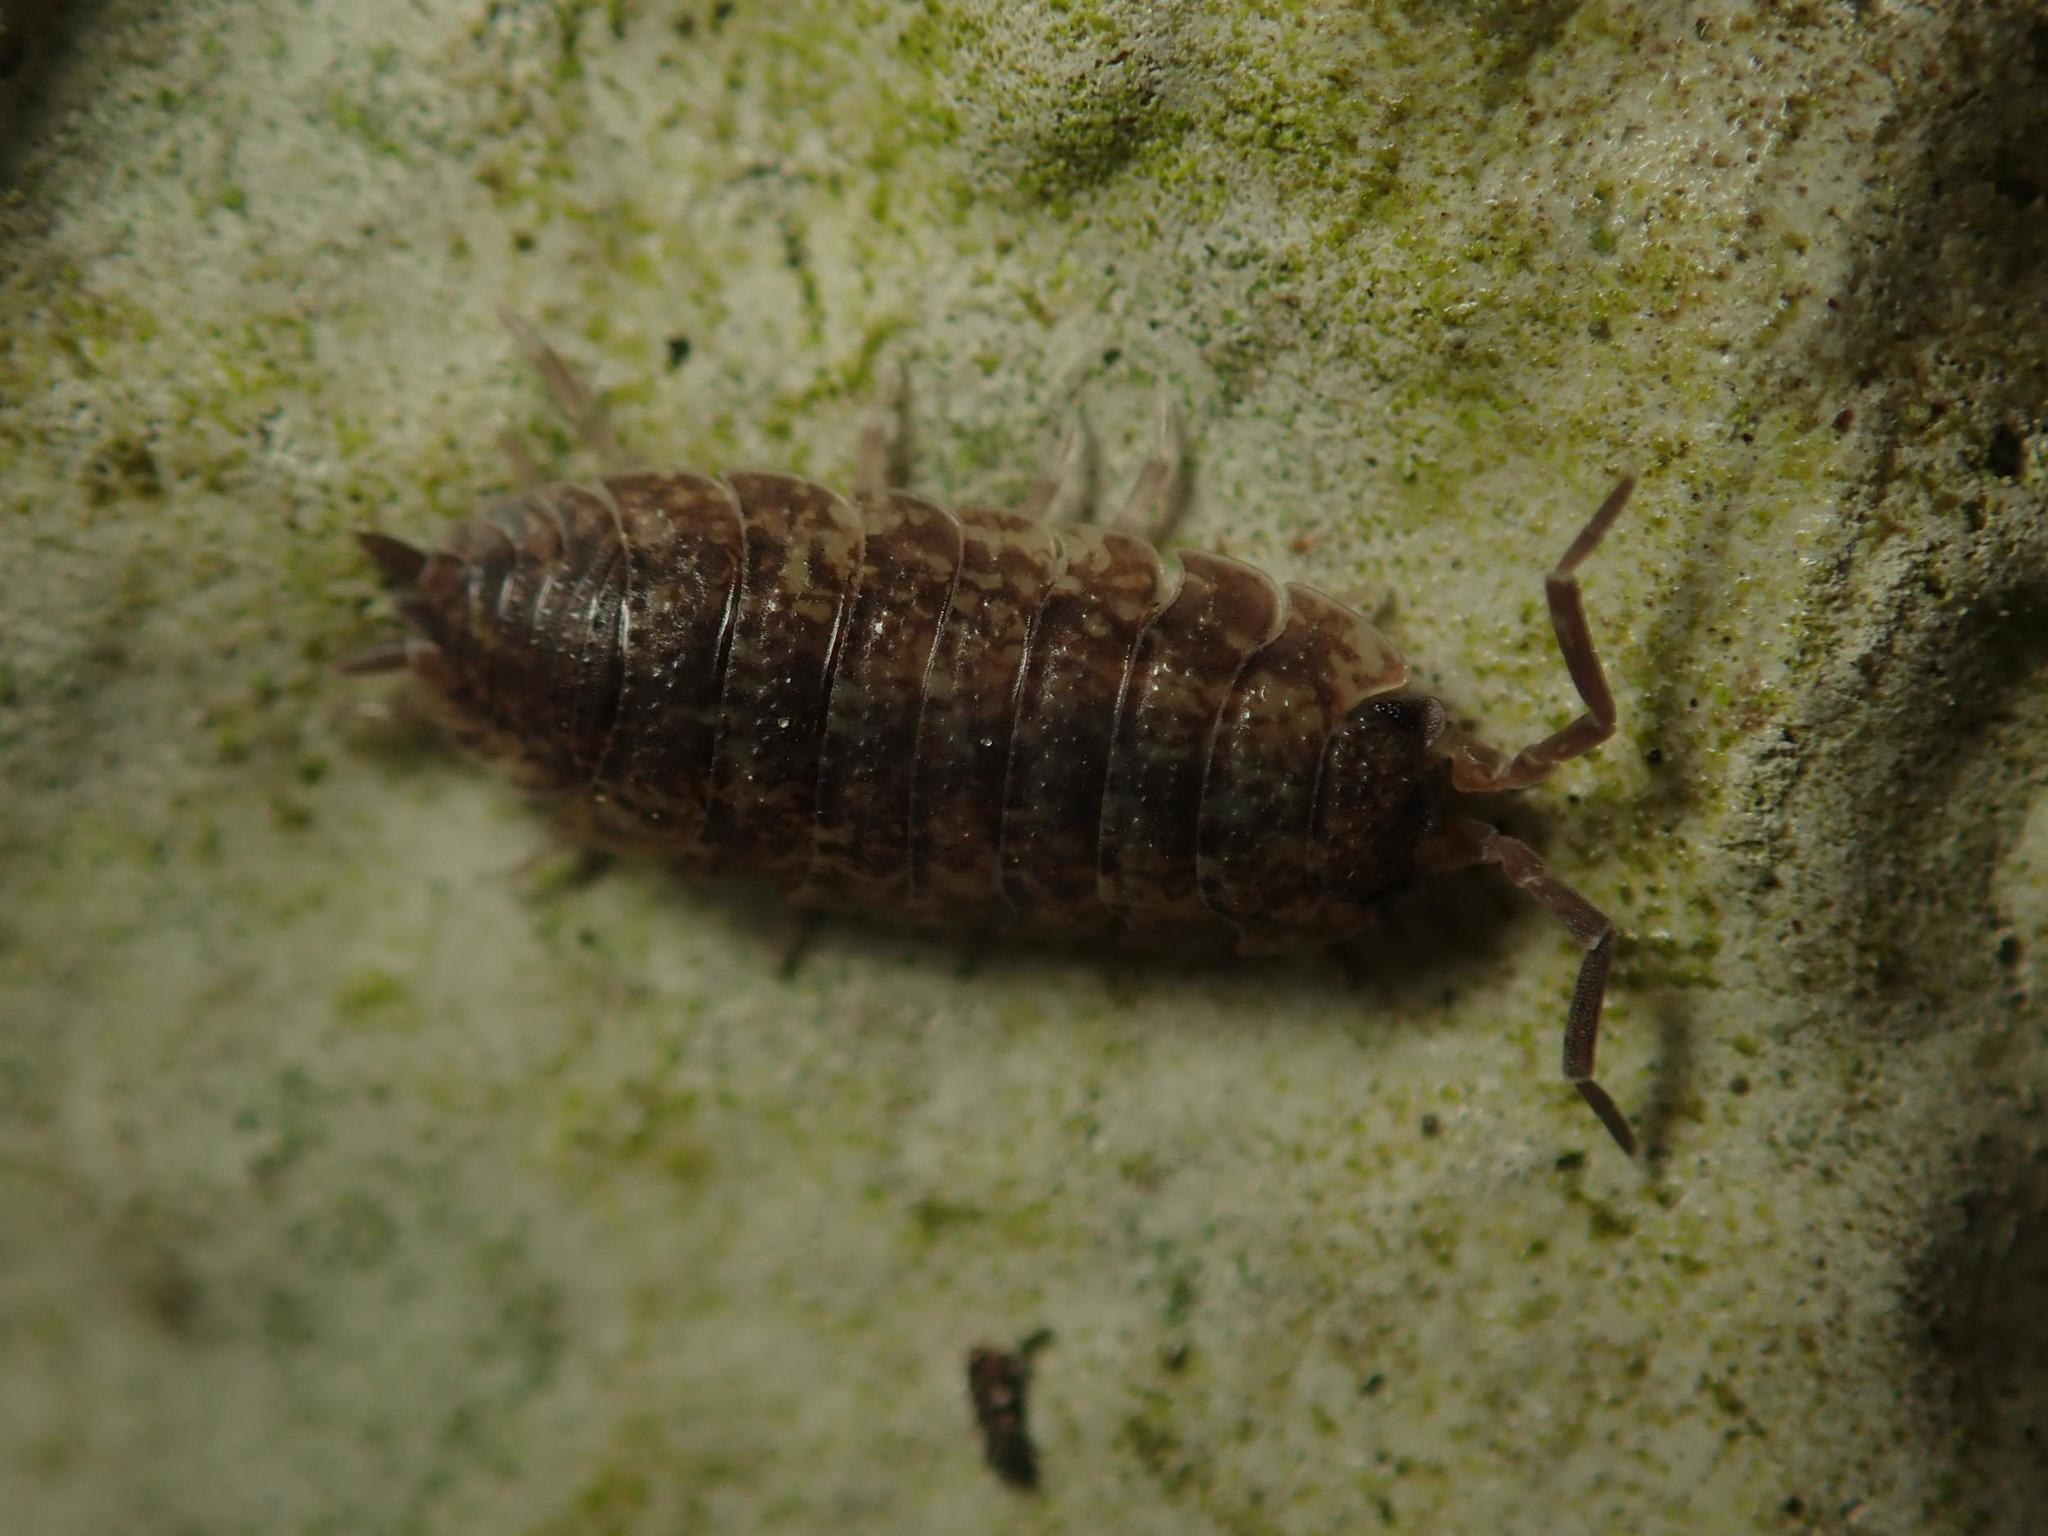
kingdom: Animalia
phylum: Arthropoda
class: Malacostraca
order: Isopoda
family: Porcellionidae
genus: Porcellio
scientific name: Porcellio scaber
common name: Common rough woodlouse
